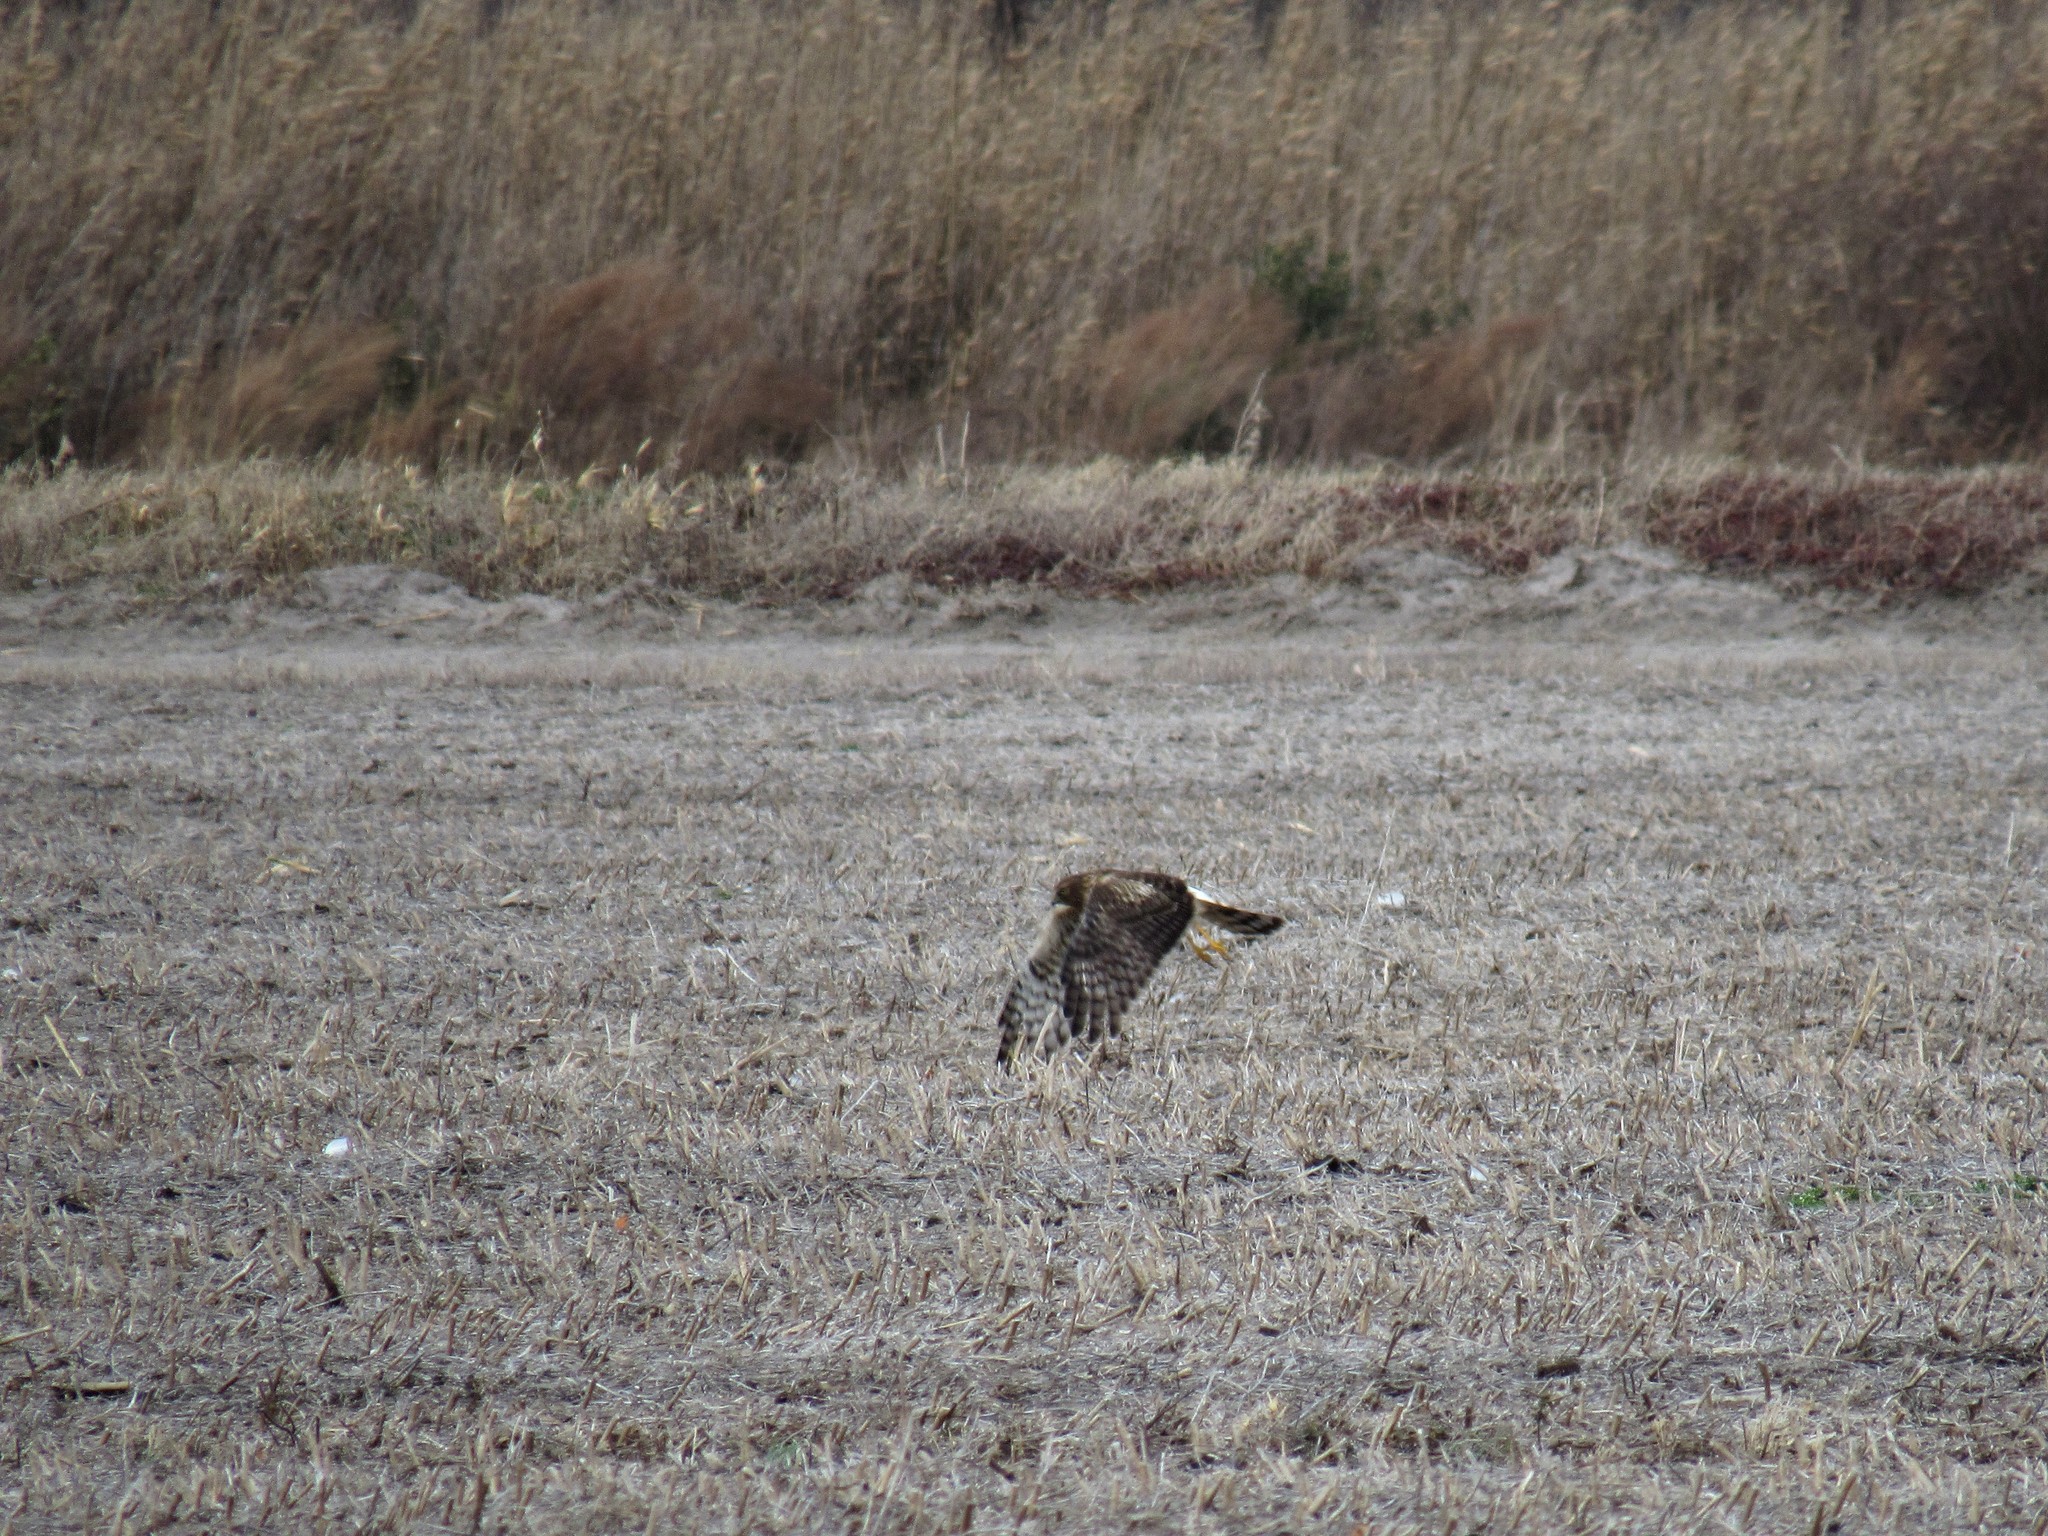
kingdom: Animalia
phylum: Chordata
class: Aves
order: Accipitriformes
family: Accipitridae
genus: Circus
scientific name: Circus cyaneus
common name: Hen harrier
